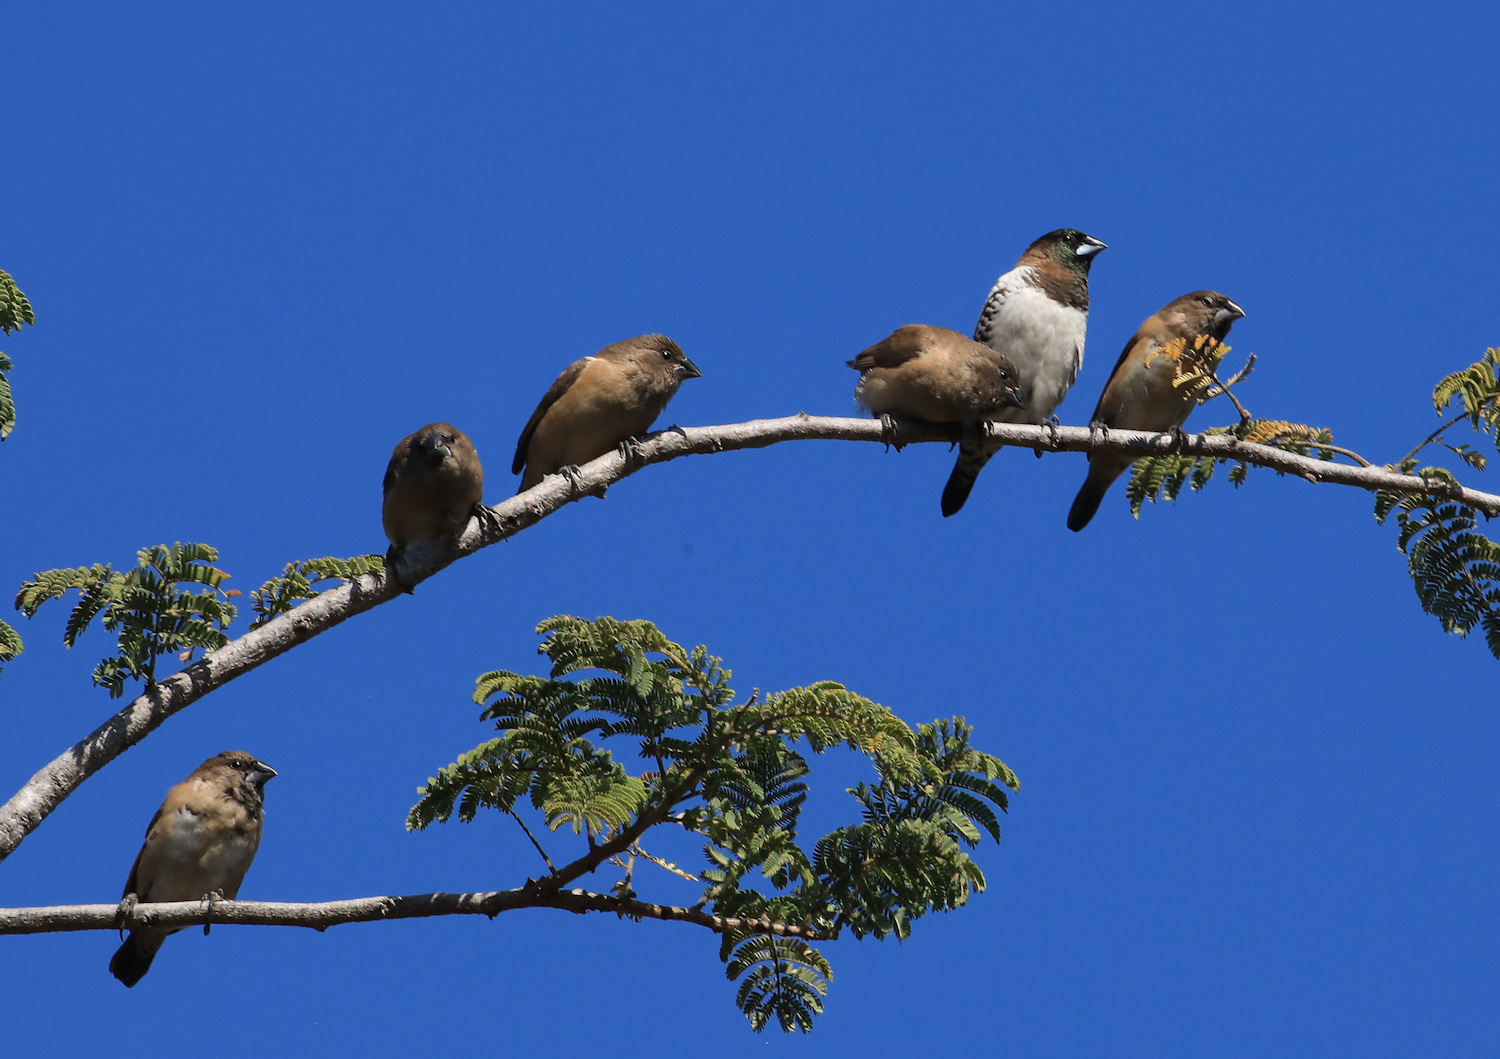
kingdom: Animalia
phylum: Chordata
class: Aves
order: Passeriformes
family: Estrildidae
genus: Lonchura
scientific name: Lonchura cucullata
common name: Bronze mannikin
